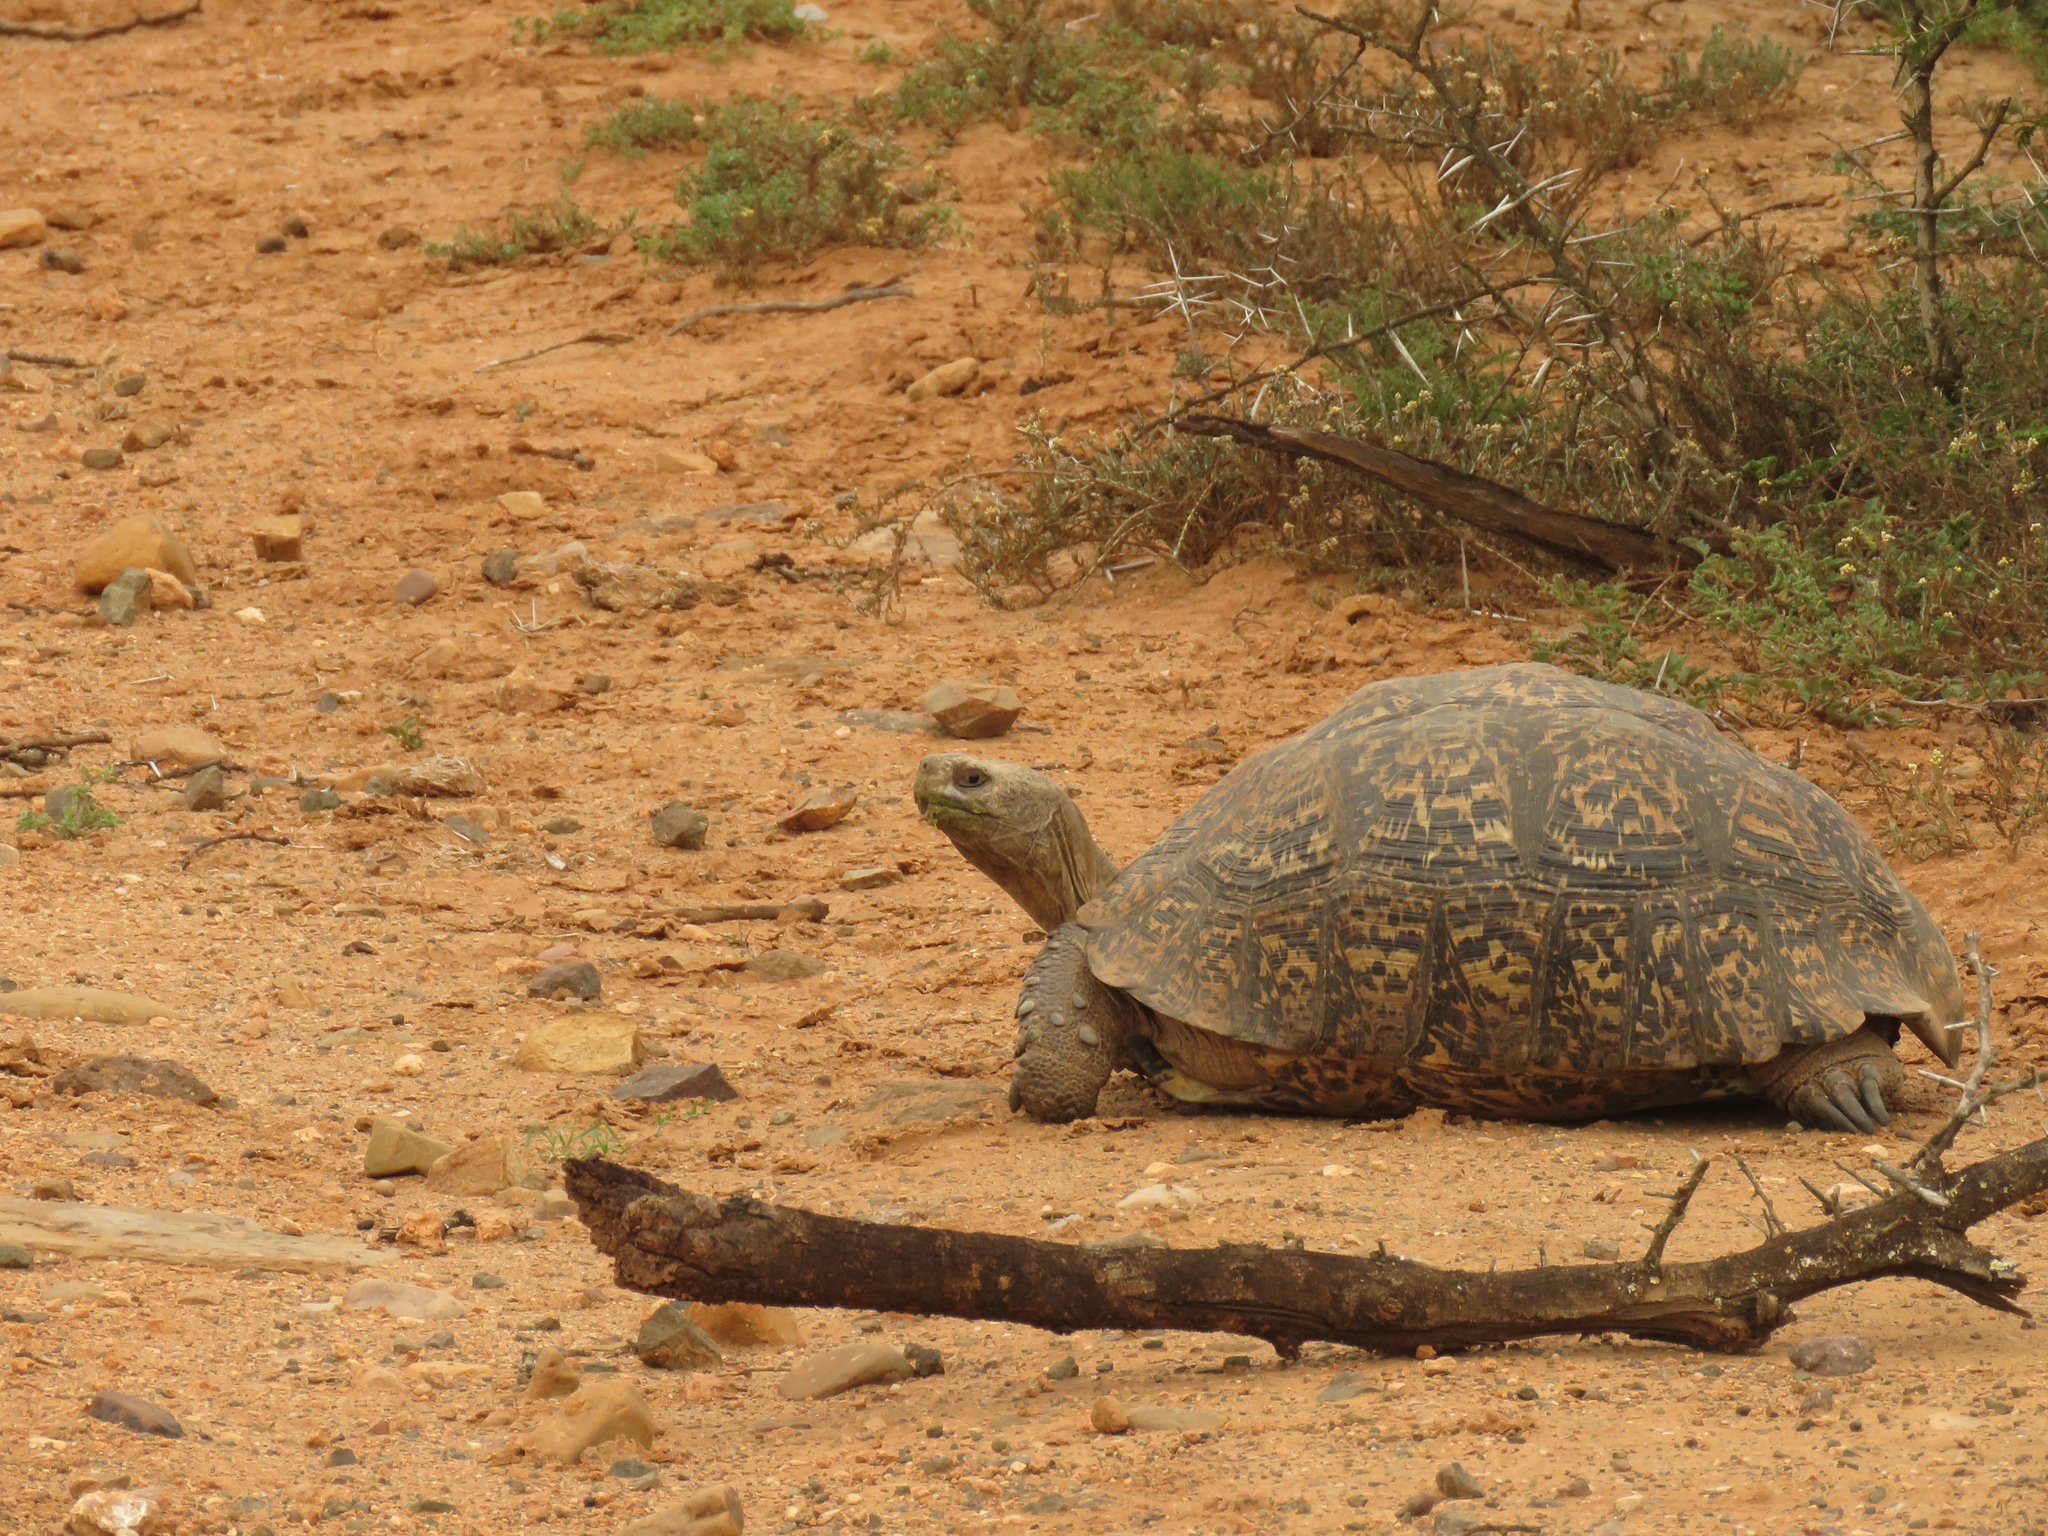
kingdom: Animalia
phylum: Chordata
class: Testudines
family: Testudinidae
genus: Stigmochelys
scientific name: Stigmochelys pardalis
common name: Leopard tortoise
